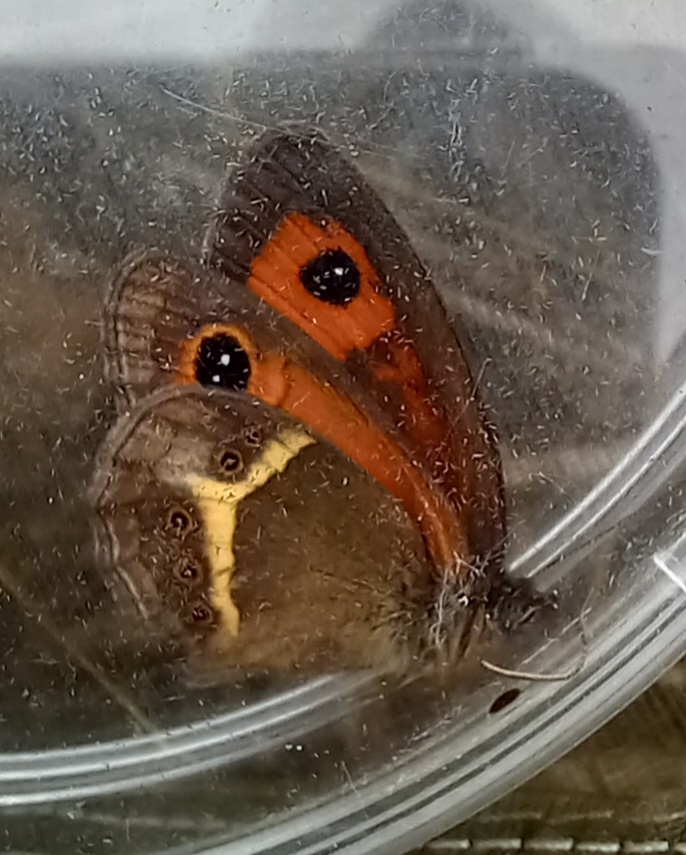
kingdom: Animalia
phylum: Arthropoda
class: Insecta
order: Lepidoptera
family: Nymphalidae
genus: Pyronia
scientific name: Pyronia bathseba
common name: Spanish gatekeeper
